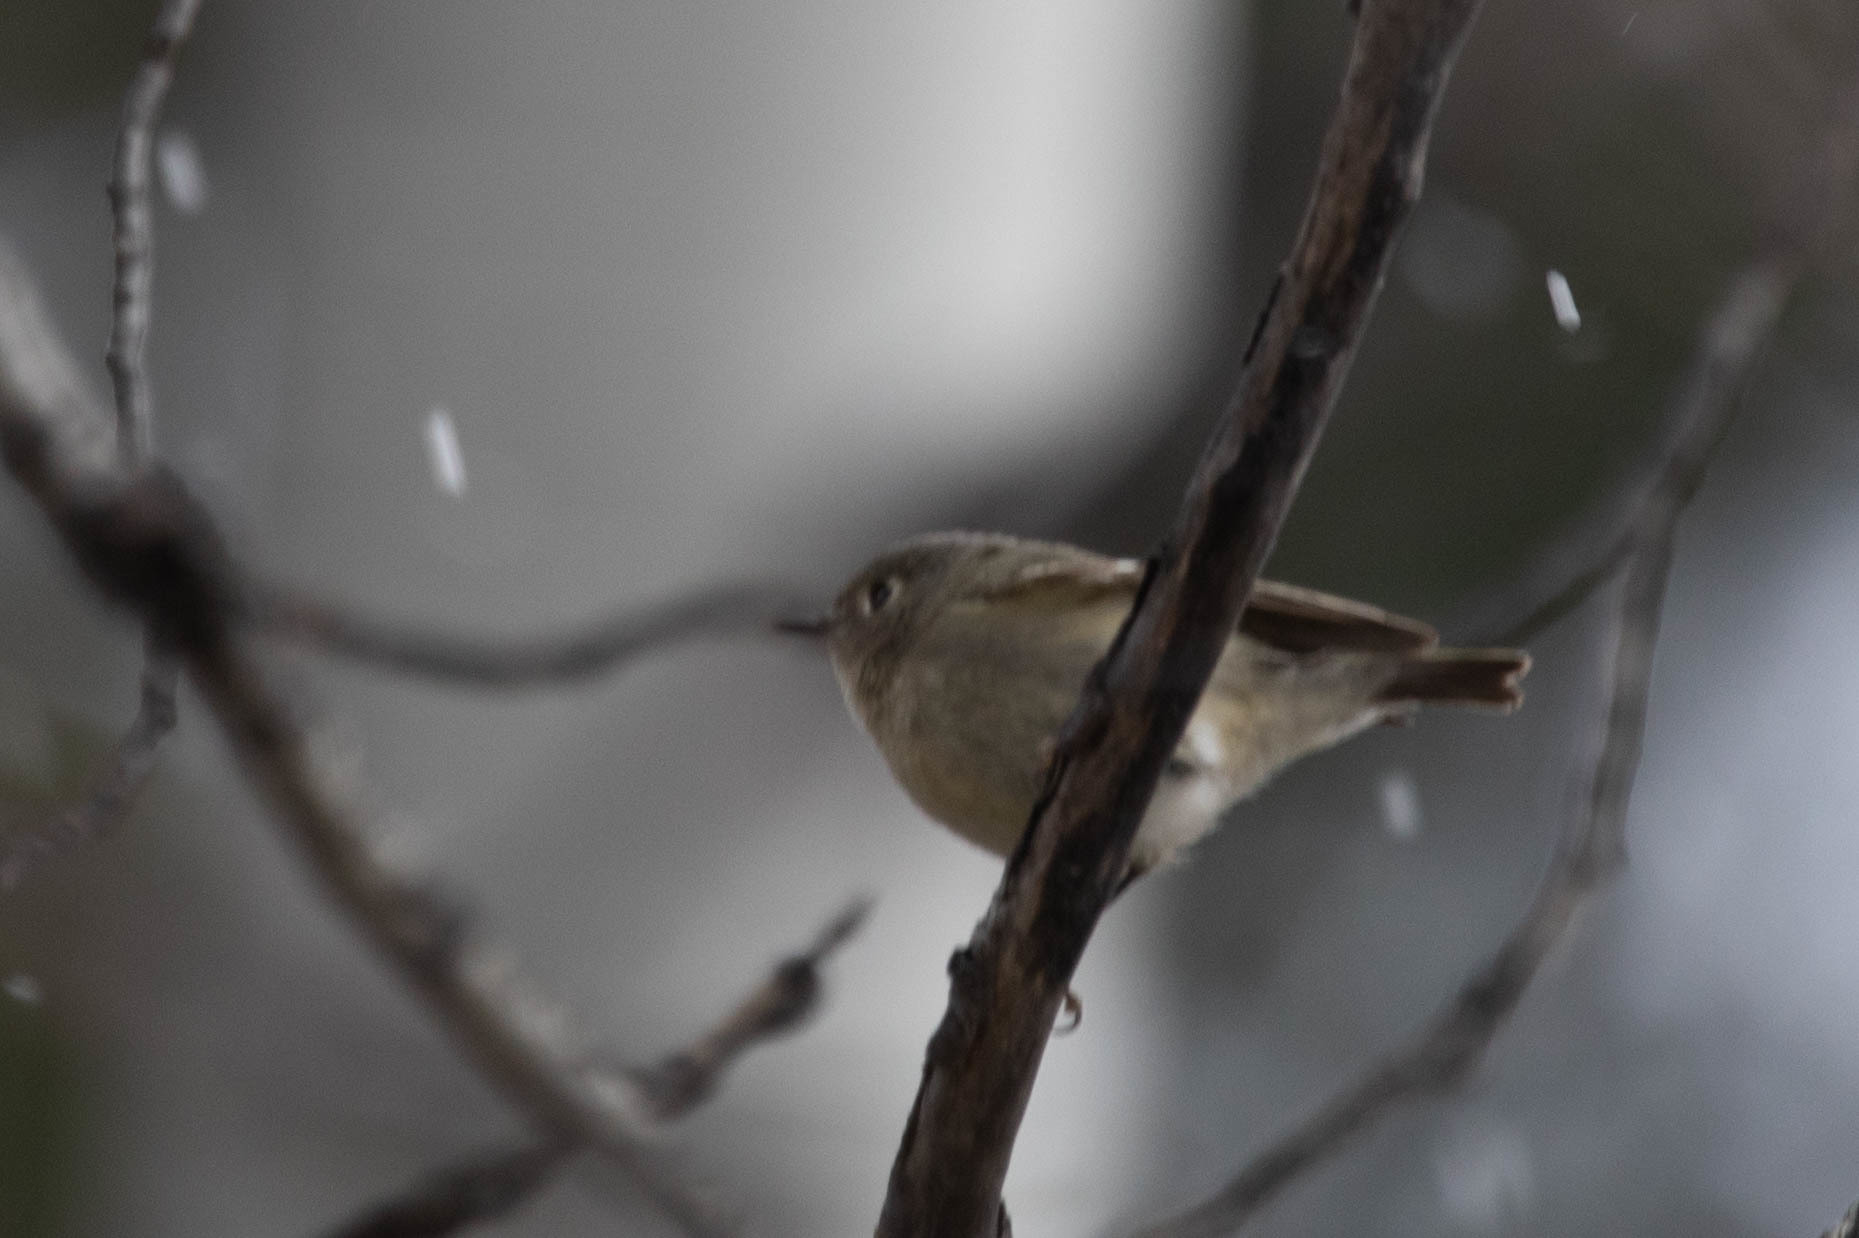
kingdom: Animalia
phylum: Chordata
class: Aves
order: Passeriformes
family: Regulidae
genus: Regulus
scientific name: Regulus calendula
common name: Ruby-crowned kinglet
